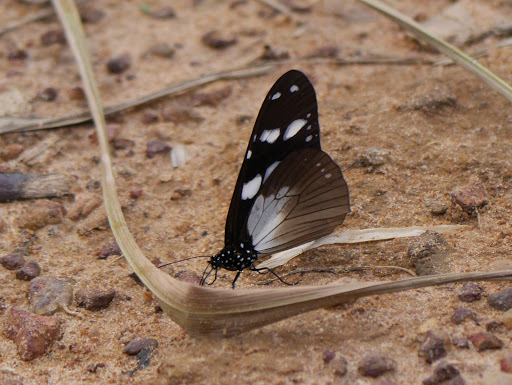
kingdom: Animalia
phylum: Arthropoda
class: Insecta
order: Lepidoptera
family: Nymphalidae
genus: Amauris
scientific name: Amauris tartarea
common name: Monk
